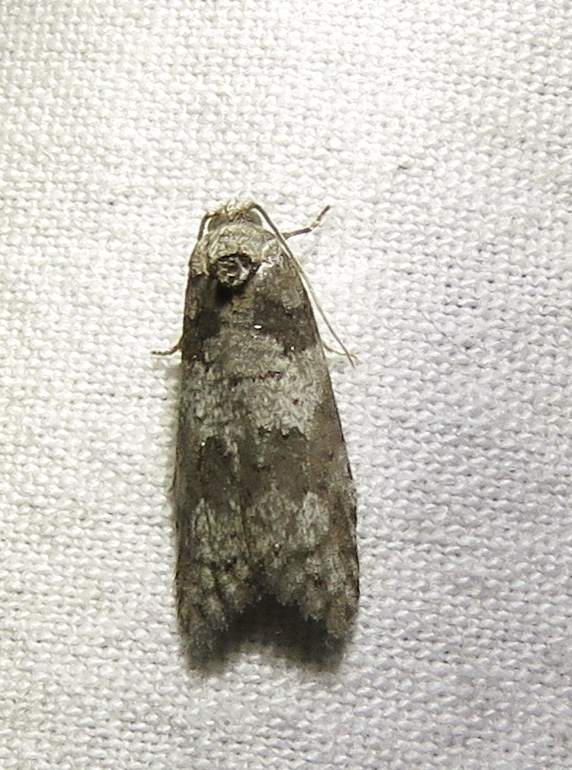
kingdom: Animalia
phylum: Arthropoda
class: Insecta
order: Lepidoptera
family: Tortricidae
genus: Decodes
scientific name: Decodes basiplagana
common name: Gray-marked tortricid
